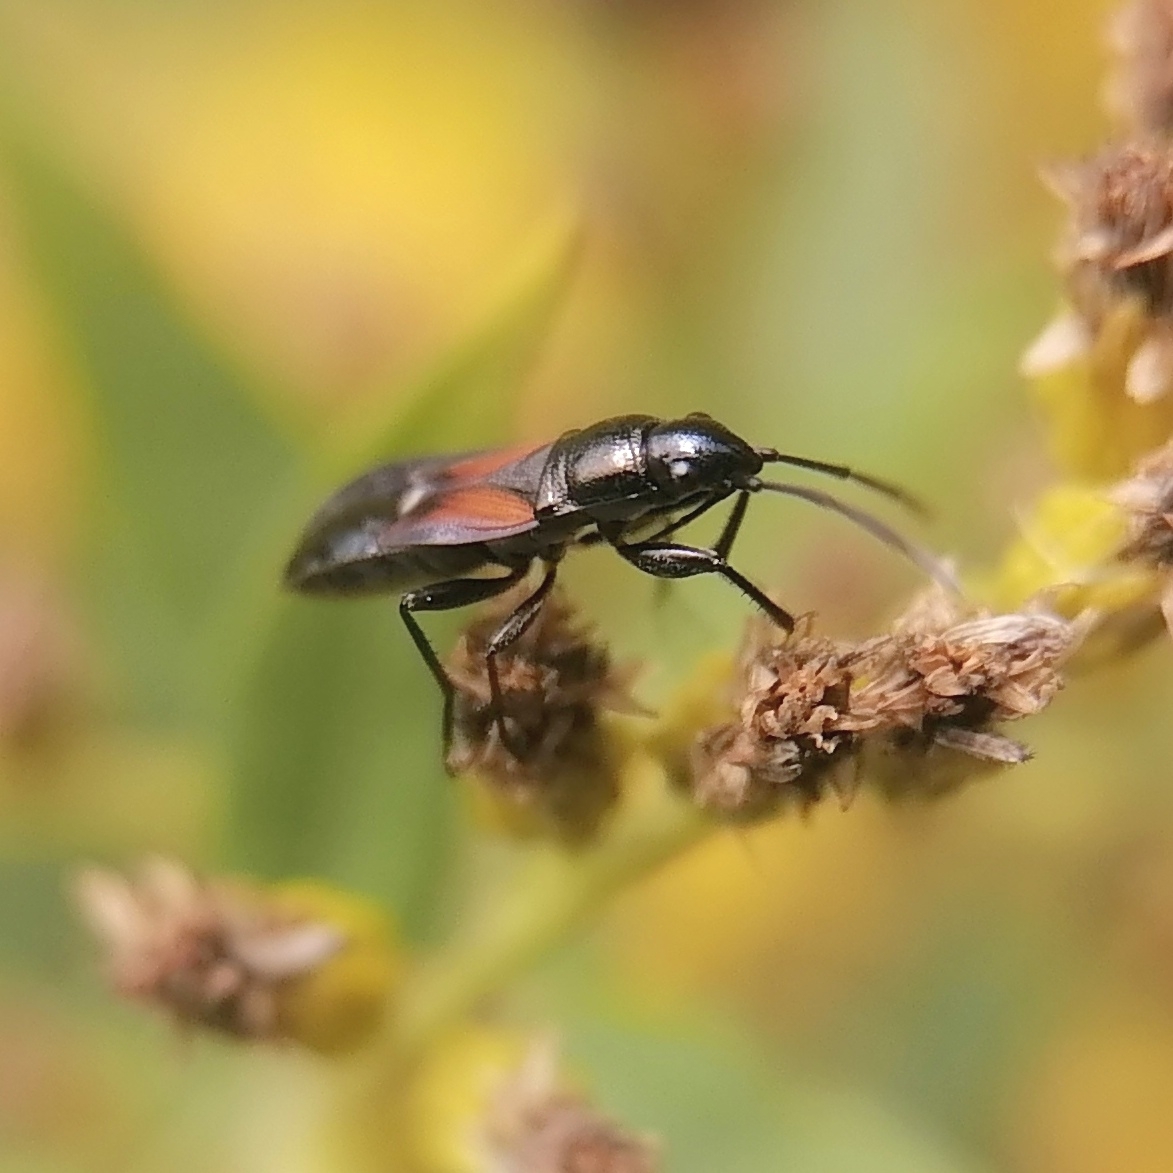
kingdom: Animalia
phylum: Arthropoda
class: Insecta
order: Hemiptera
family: Rhyparochromidae
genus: Pterotmetus
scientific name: Pterotmetus staphyliniformis
